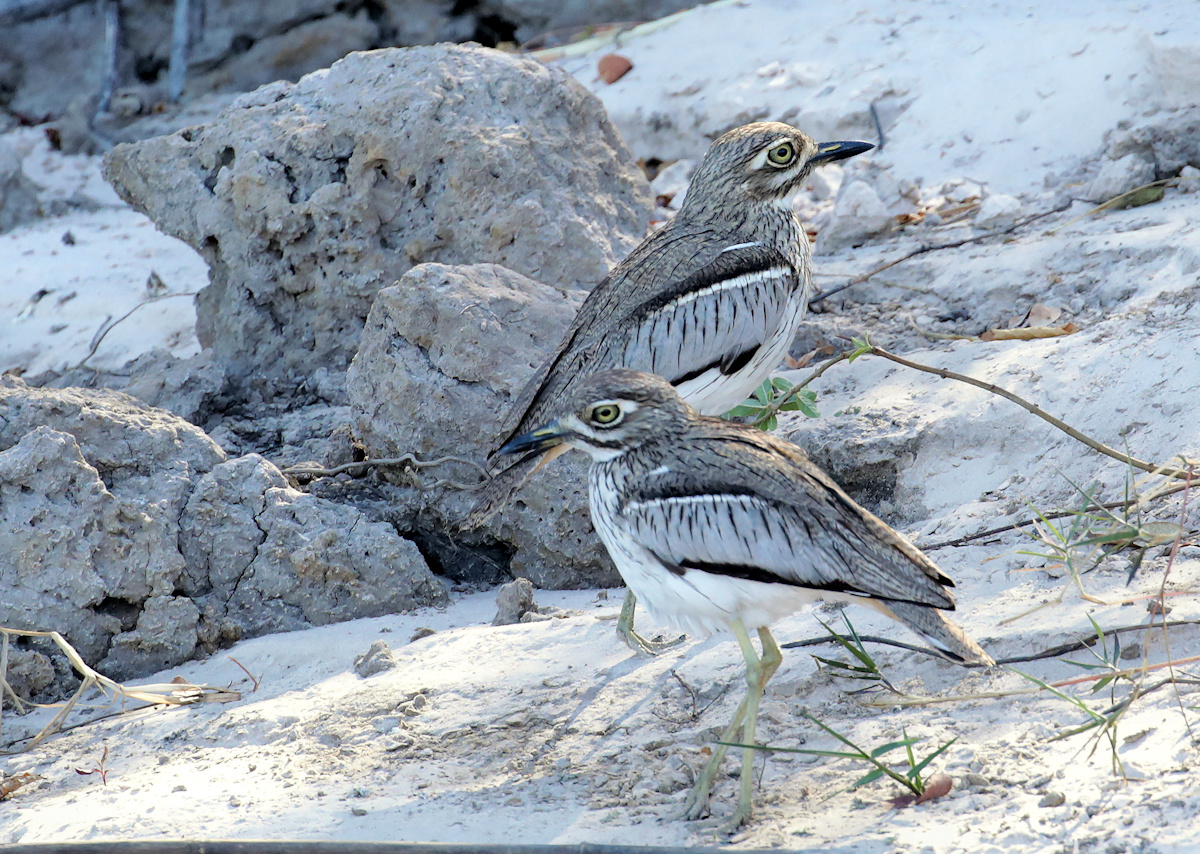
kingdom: Animalia
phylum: Chordata
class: Aves
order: Charadriiformes
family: Burhinidae
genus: Burhinus
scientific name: Burhinus vermiculatus
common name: Water thick-knee
